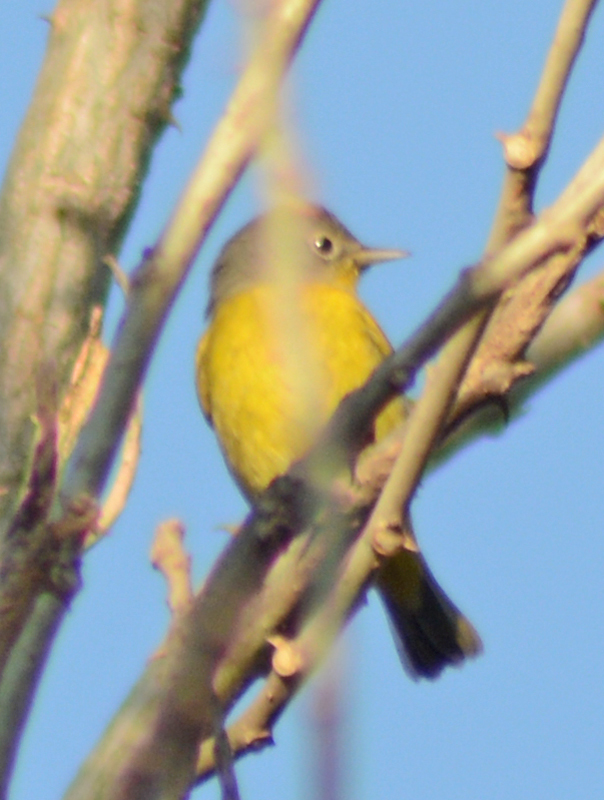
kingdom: Animalia
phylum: Chordata
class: Aves
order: Passeriformes
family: Parulidae
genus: Leiothlypis
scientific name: Leiothlypis ruficapilla
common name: Nashville warbler
